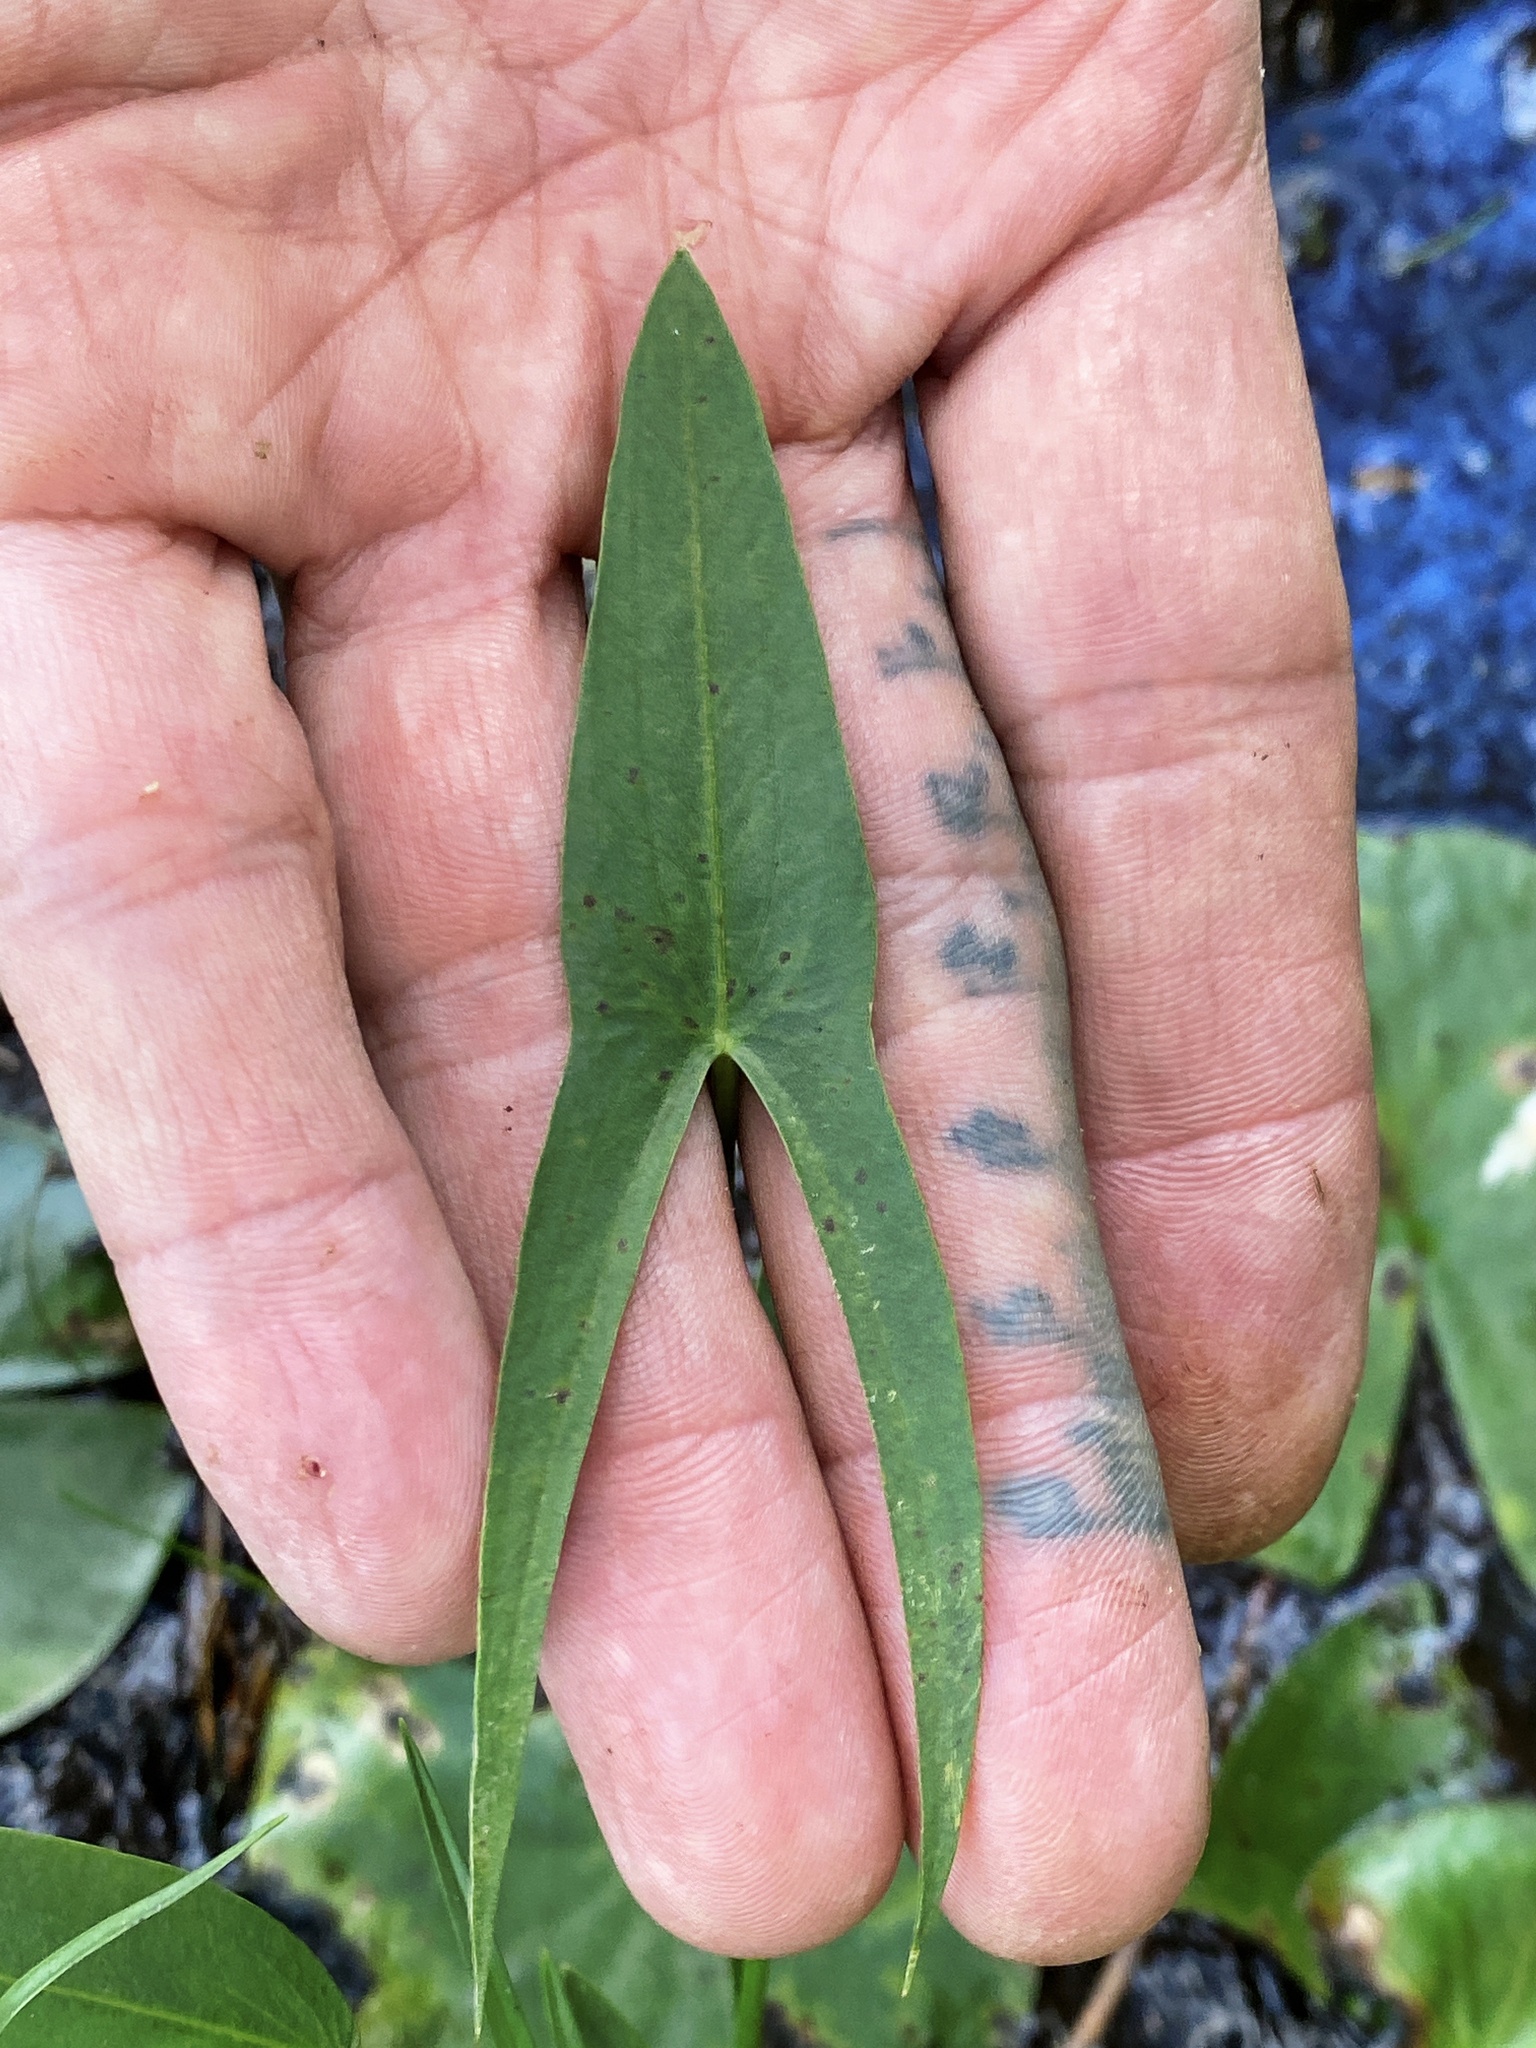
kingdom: Plantae
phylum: Tracheophyta
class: Liliopsida
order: Alismatales
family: Alismataceae
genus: Sagittaria
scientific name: Sagittaria engelmanniana
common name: Acid-water arrowhead
